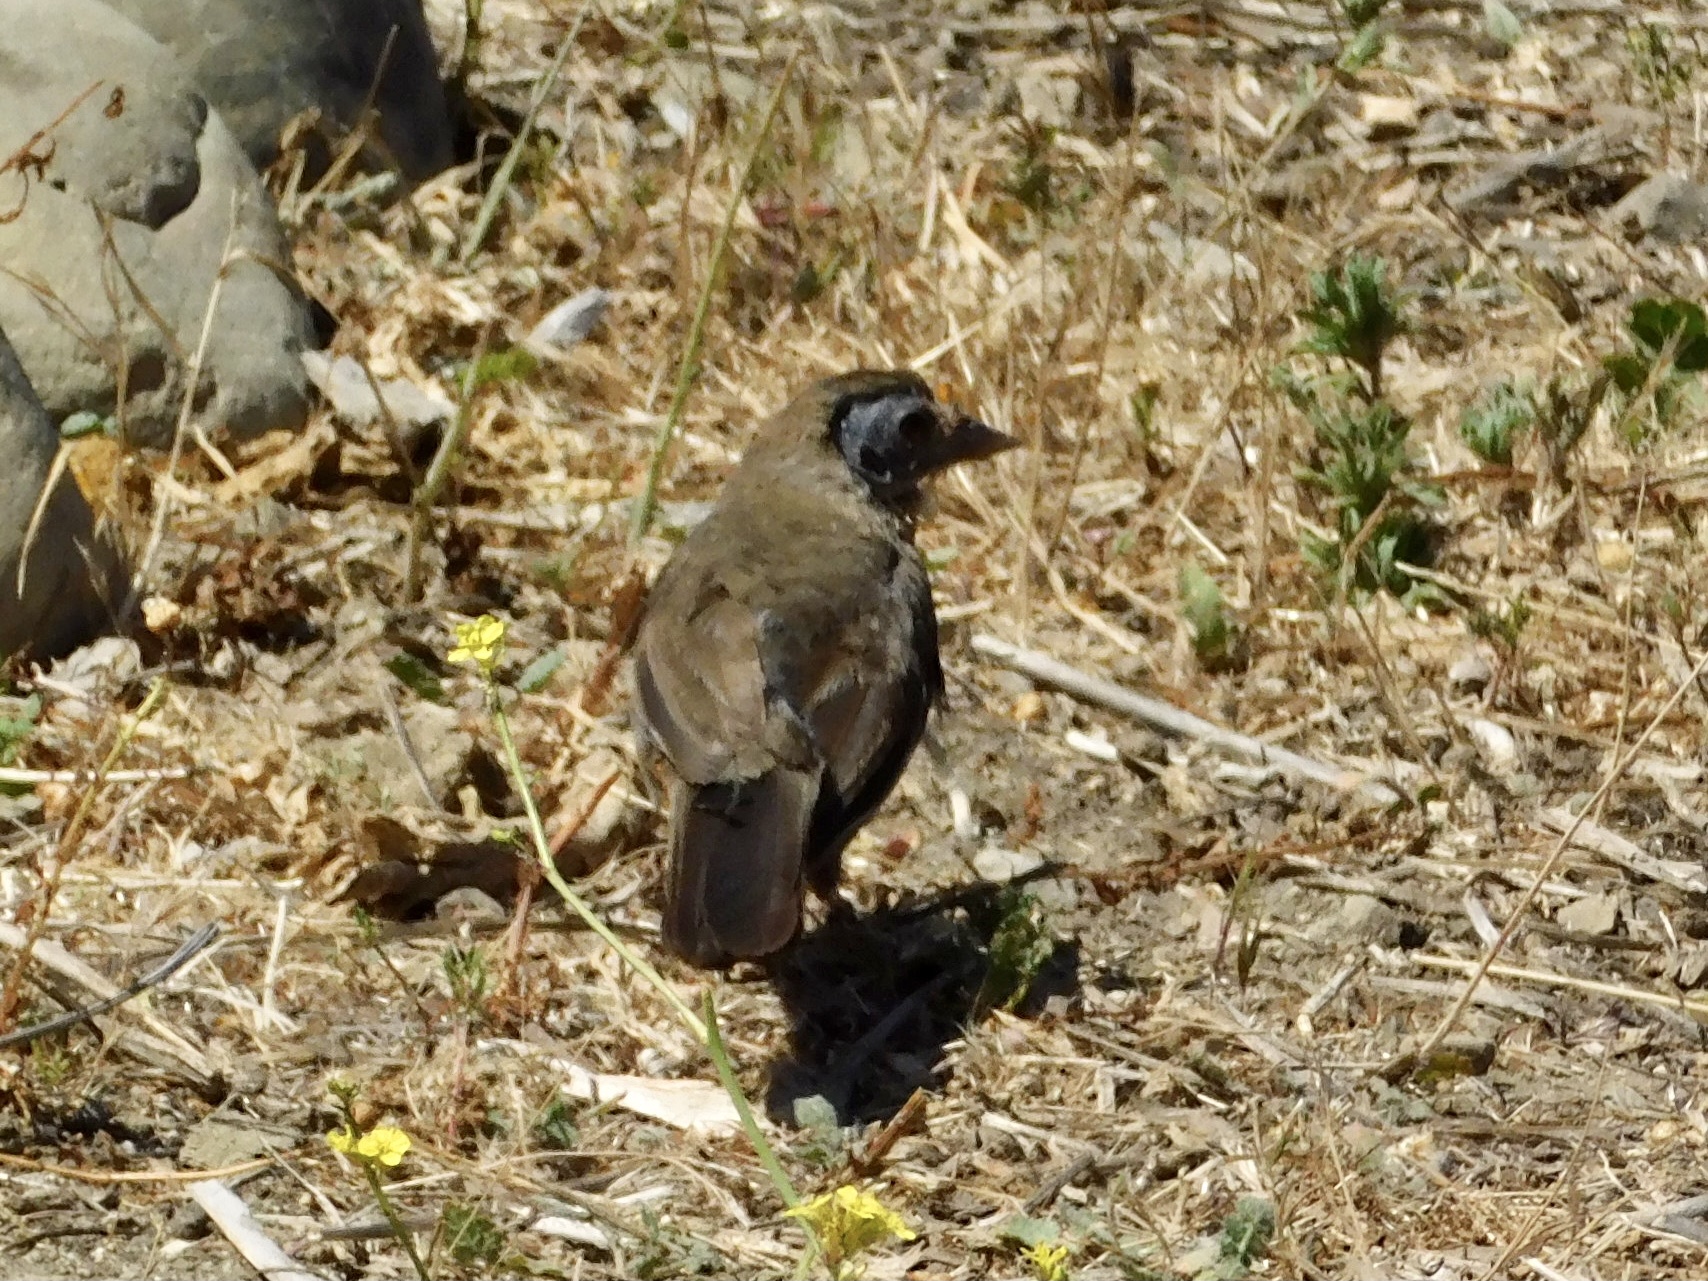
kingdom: Animalia
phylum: Chordata
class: Aves
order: Passeriformes
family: Passerellidae
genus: Melozone
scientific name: Melozone crissalis
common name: California towhee
